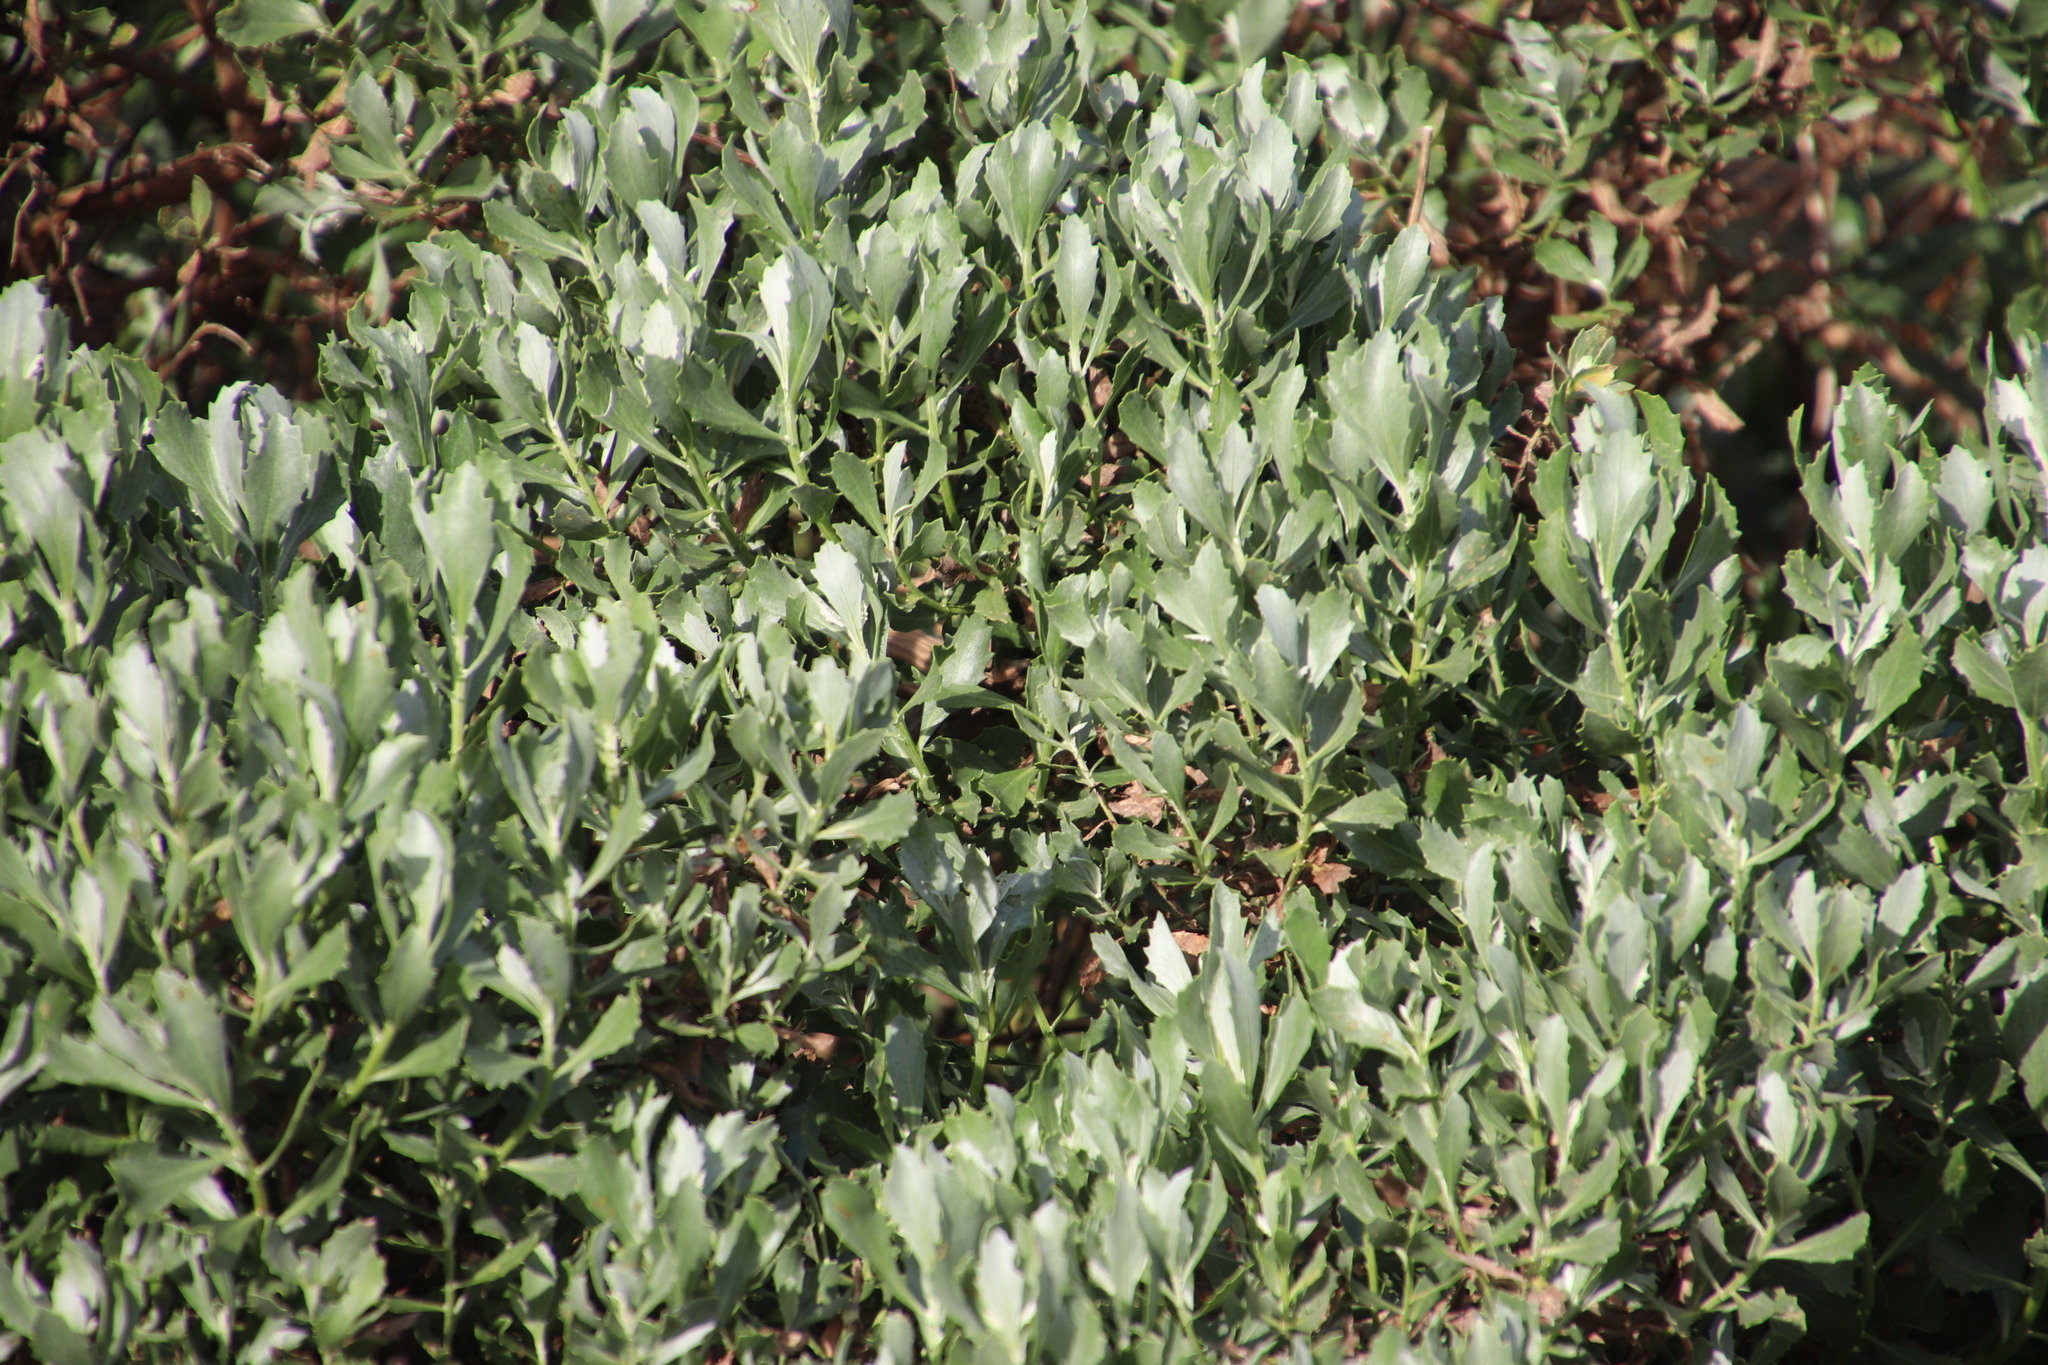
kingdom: Plantae
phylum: Tracheophyta
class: Magnoliopsida
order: Asterales
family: Asteraceae
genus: Senecio
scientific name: Senecio halimifolius
